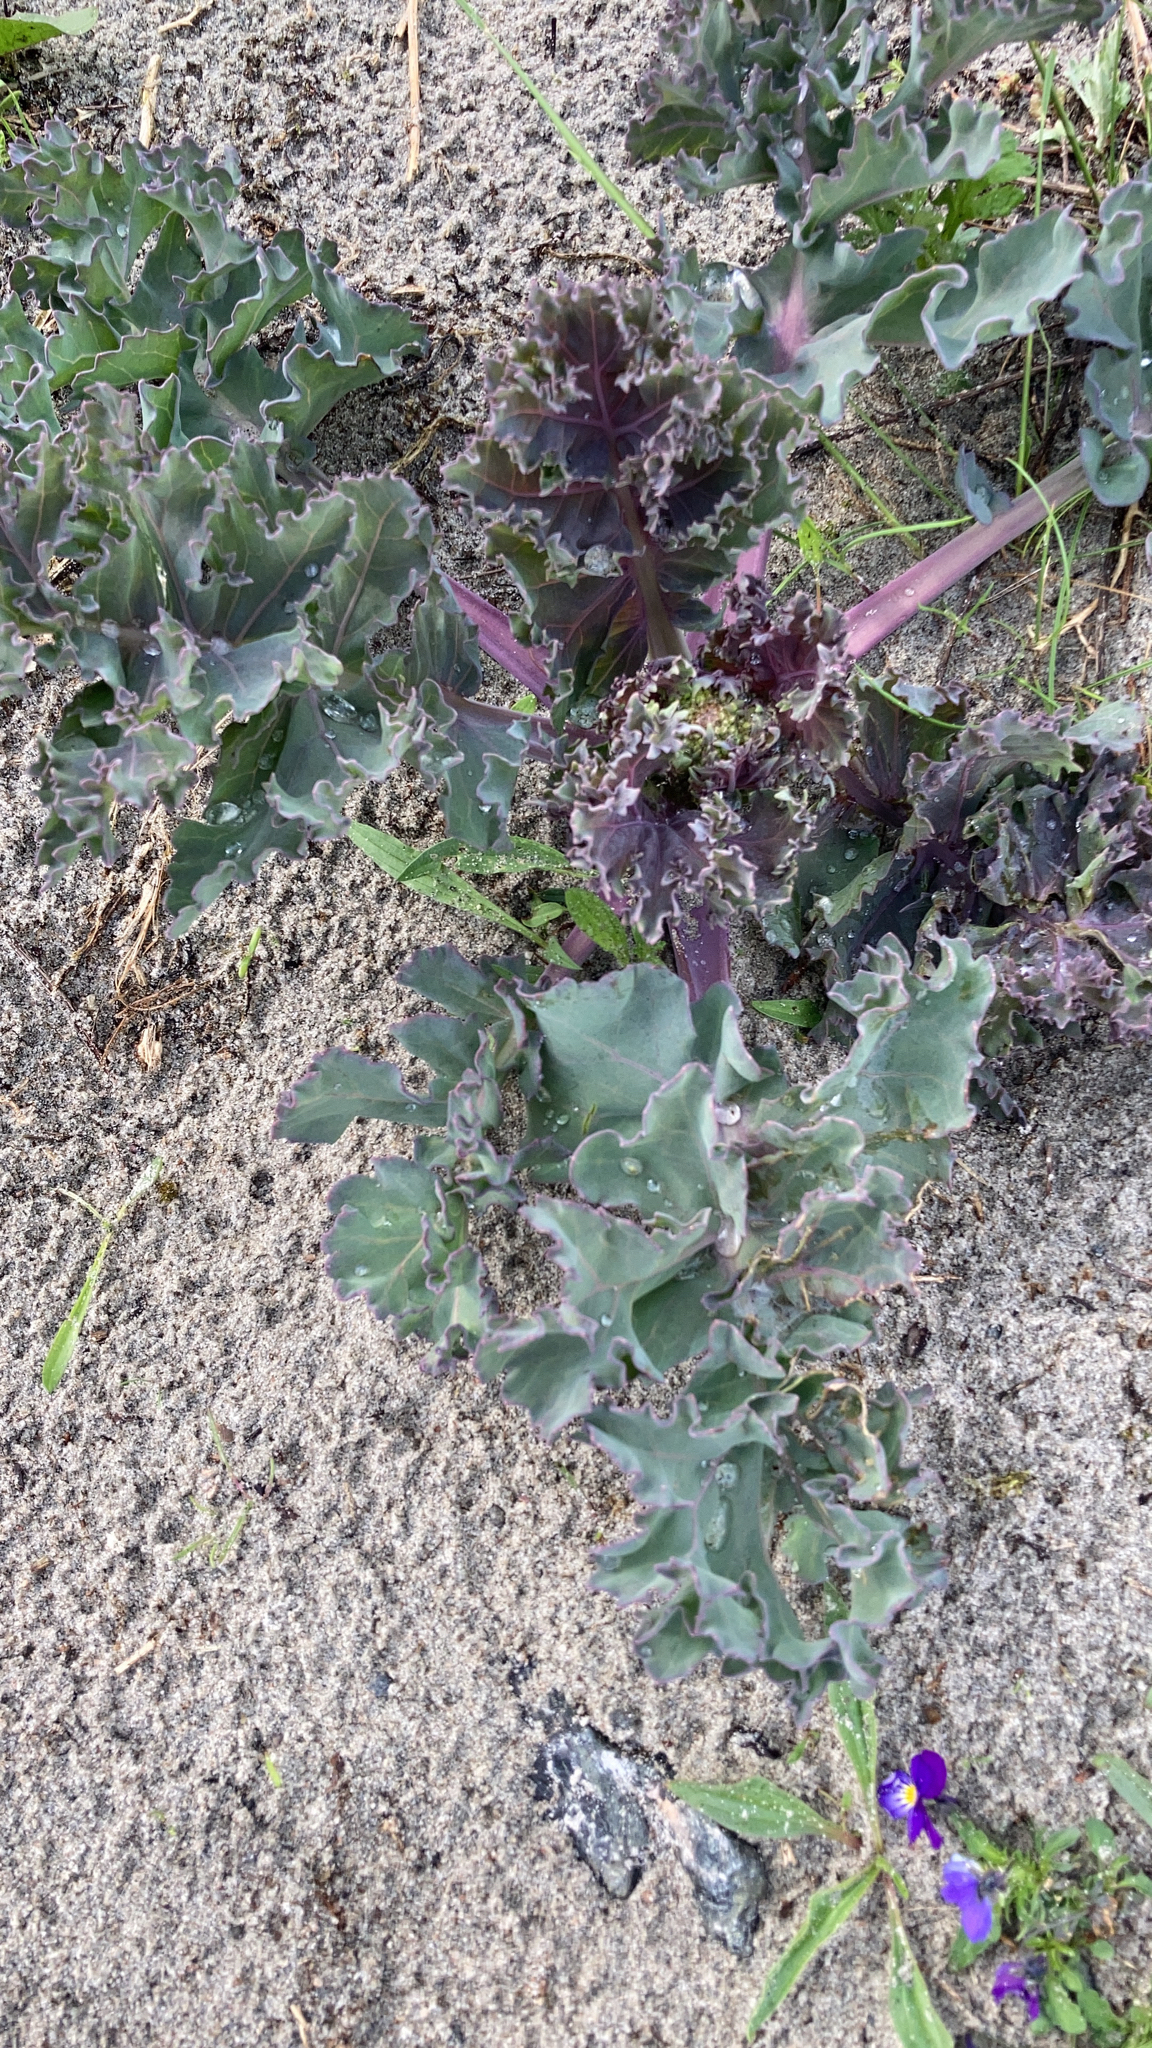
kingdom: Plantae
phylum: Tracheophyta
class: Magnoliopsida
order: Brassicales
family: Brassicaceae
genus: Crambe
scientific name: Crambe maritima
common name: Sea-kale
